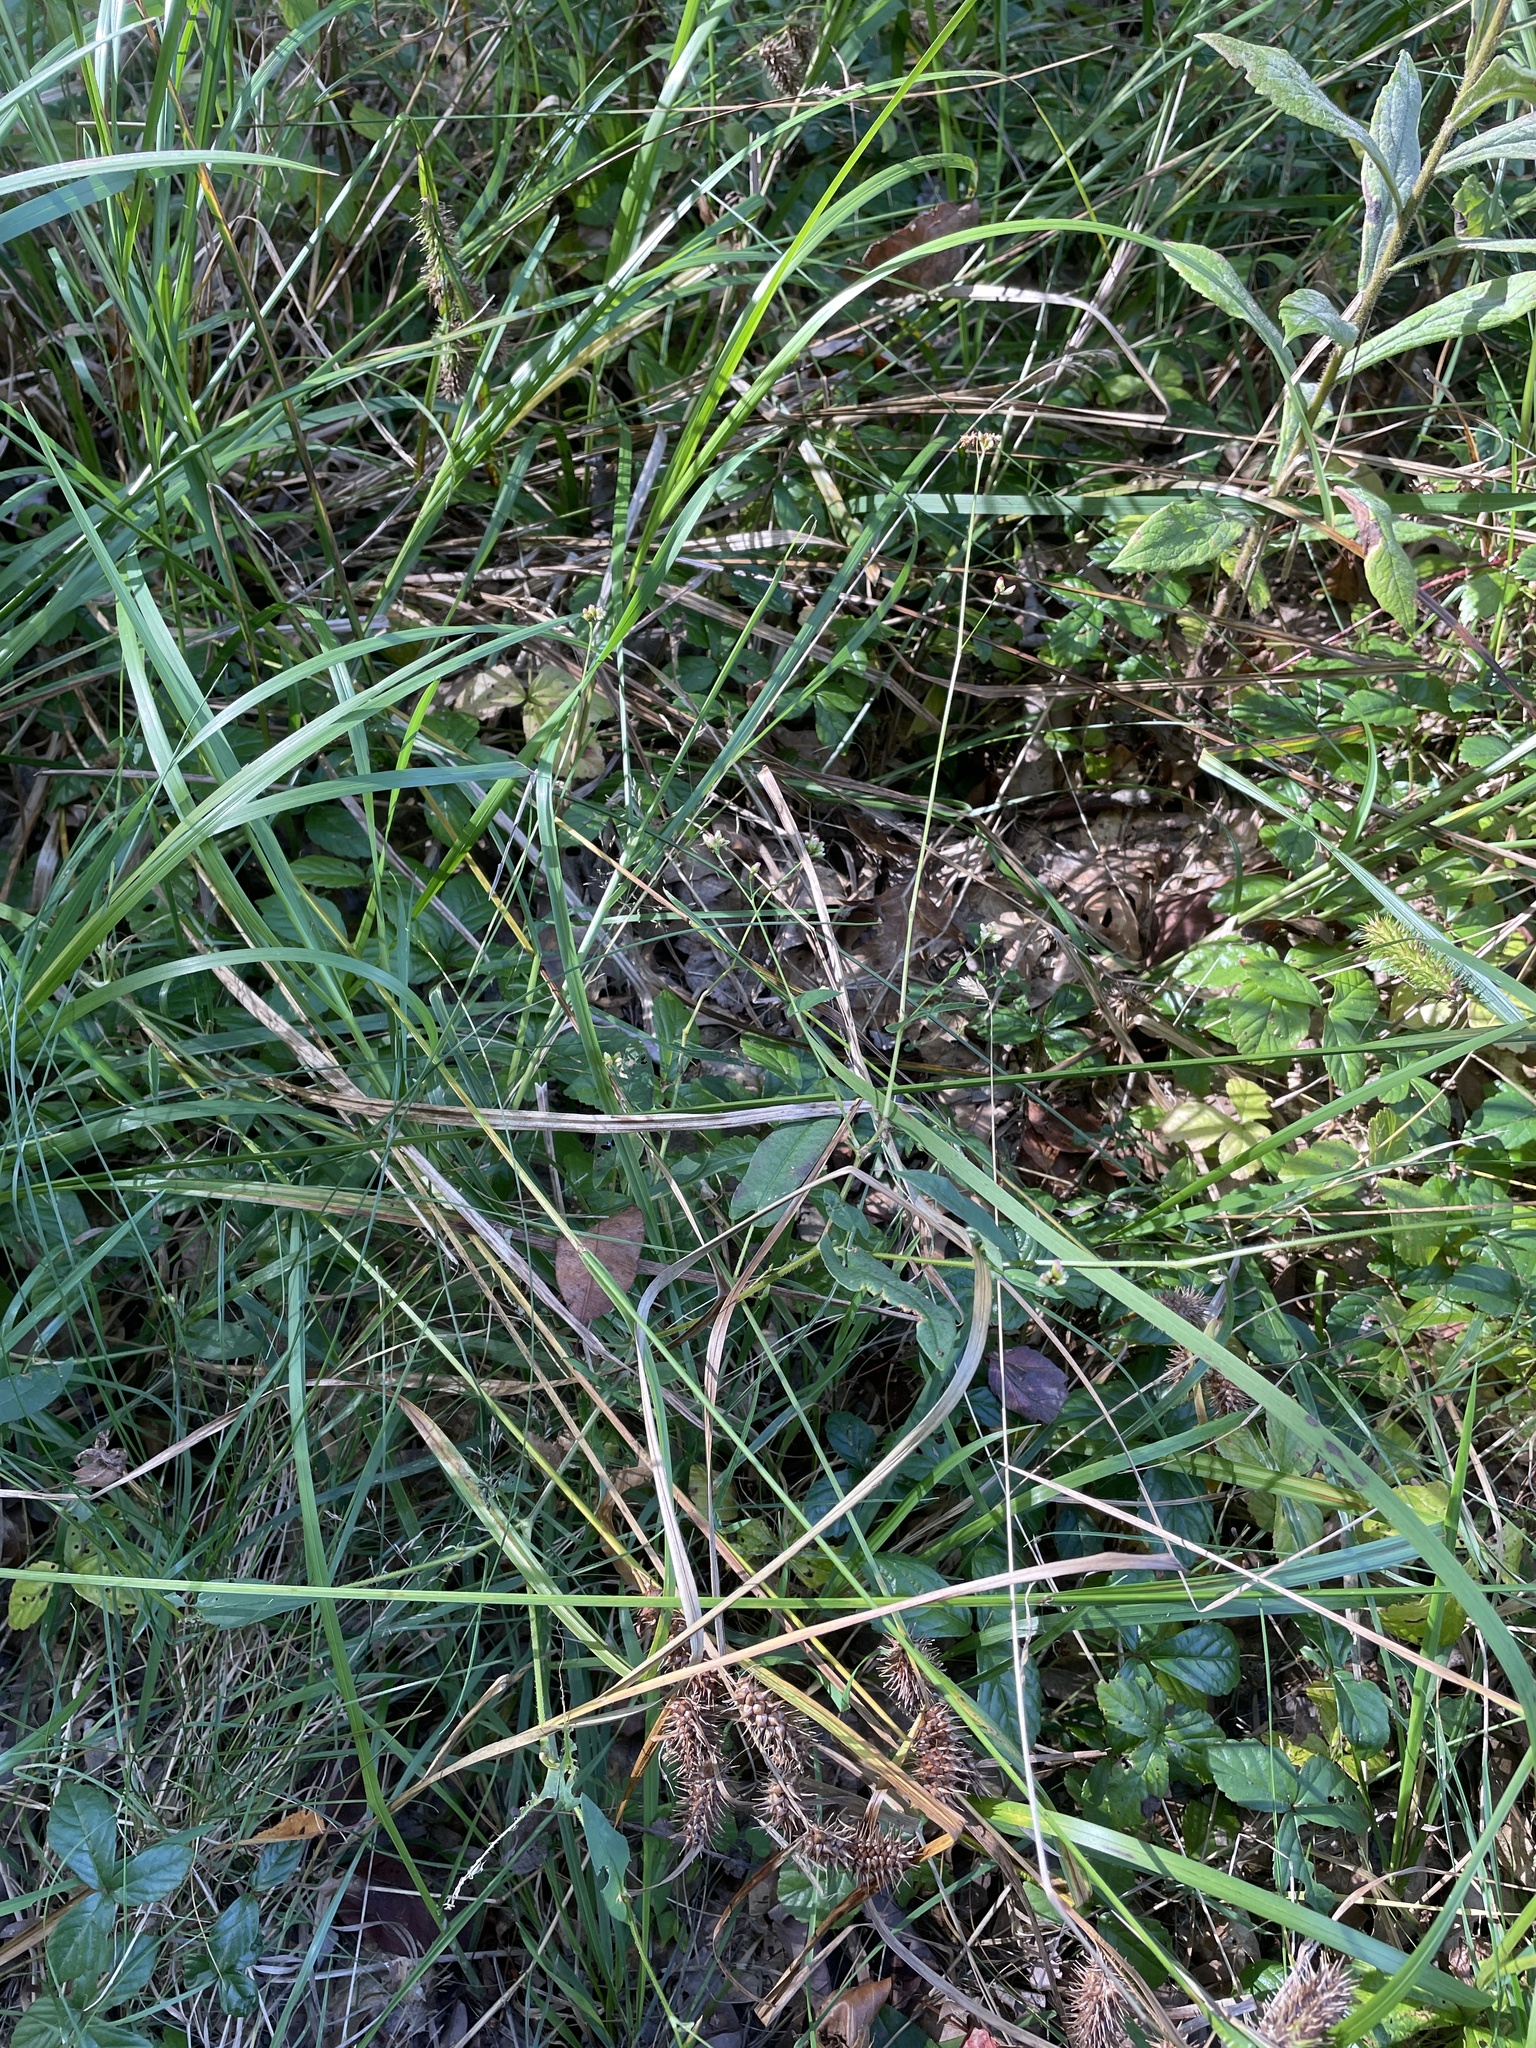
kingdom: Plantae
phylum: Tracheophyta
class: Magnoliopsida
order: Caryophyllales
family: Polygonaceae
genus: Persicaria
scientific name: Persicaria sagittata
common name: American tearthumb
